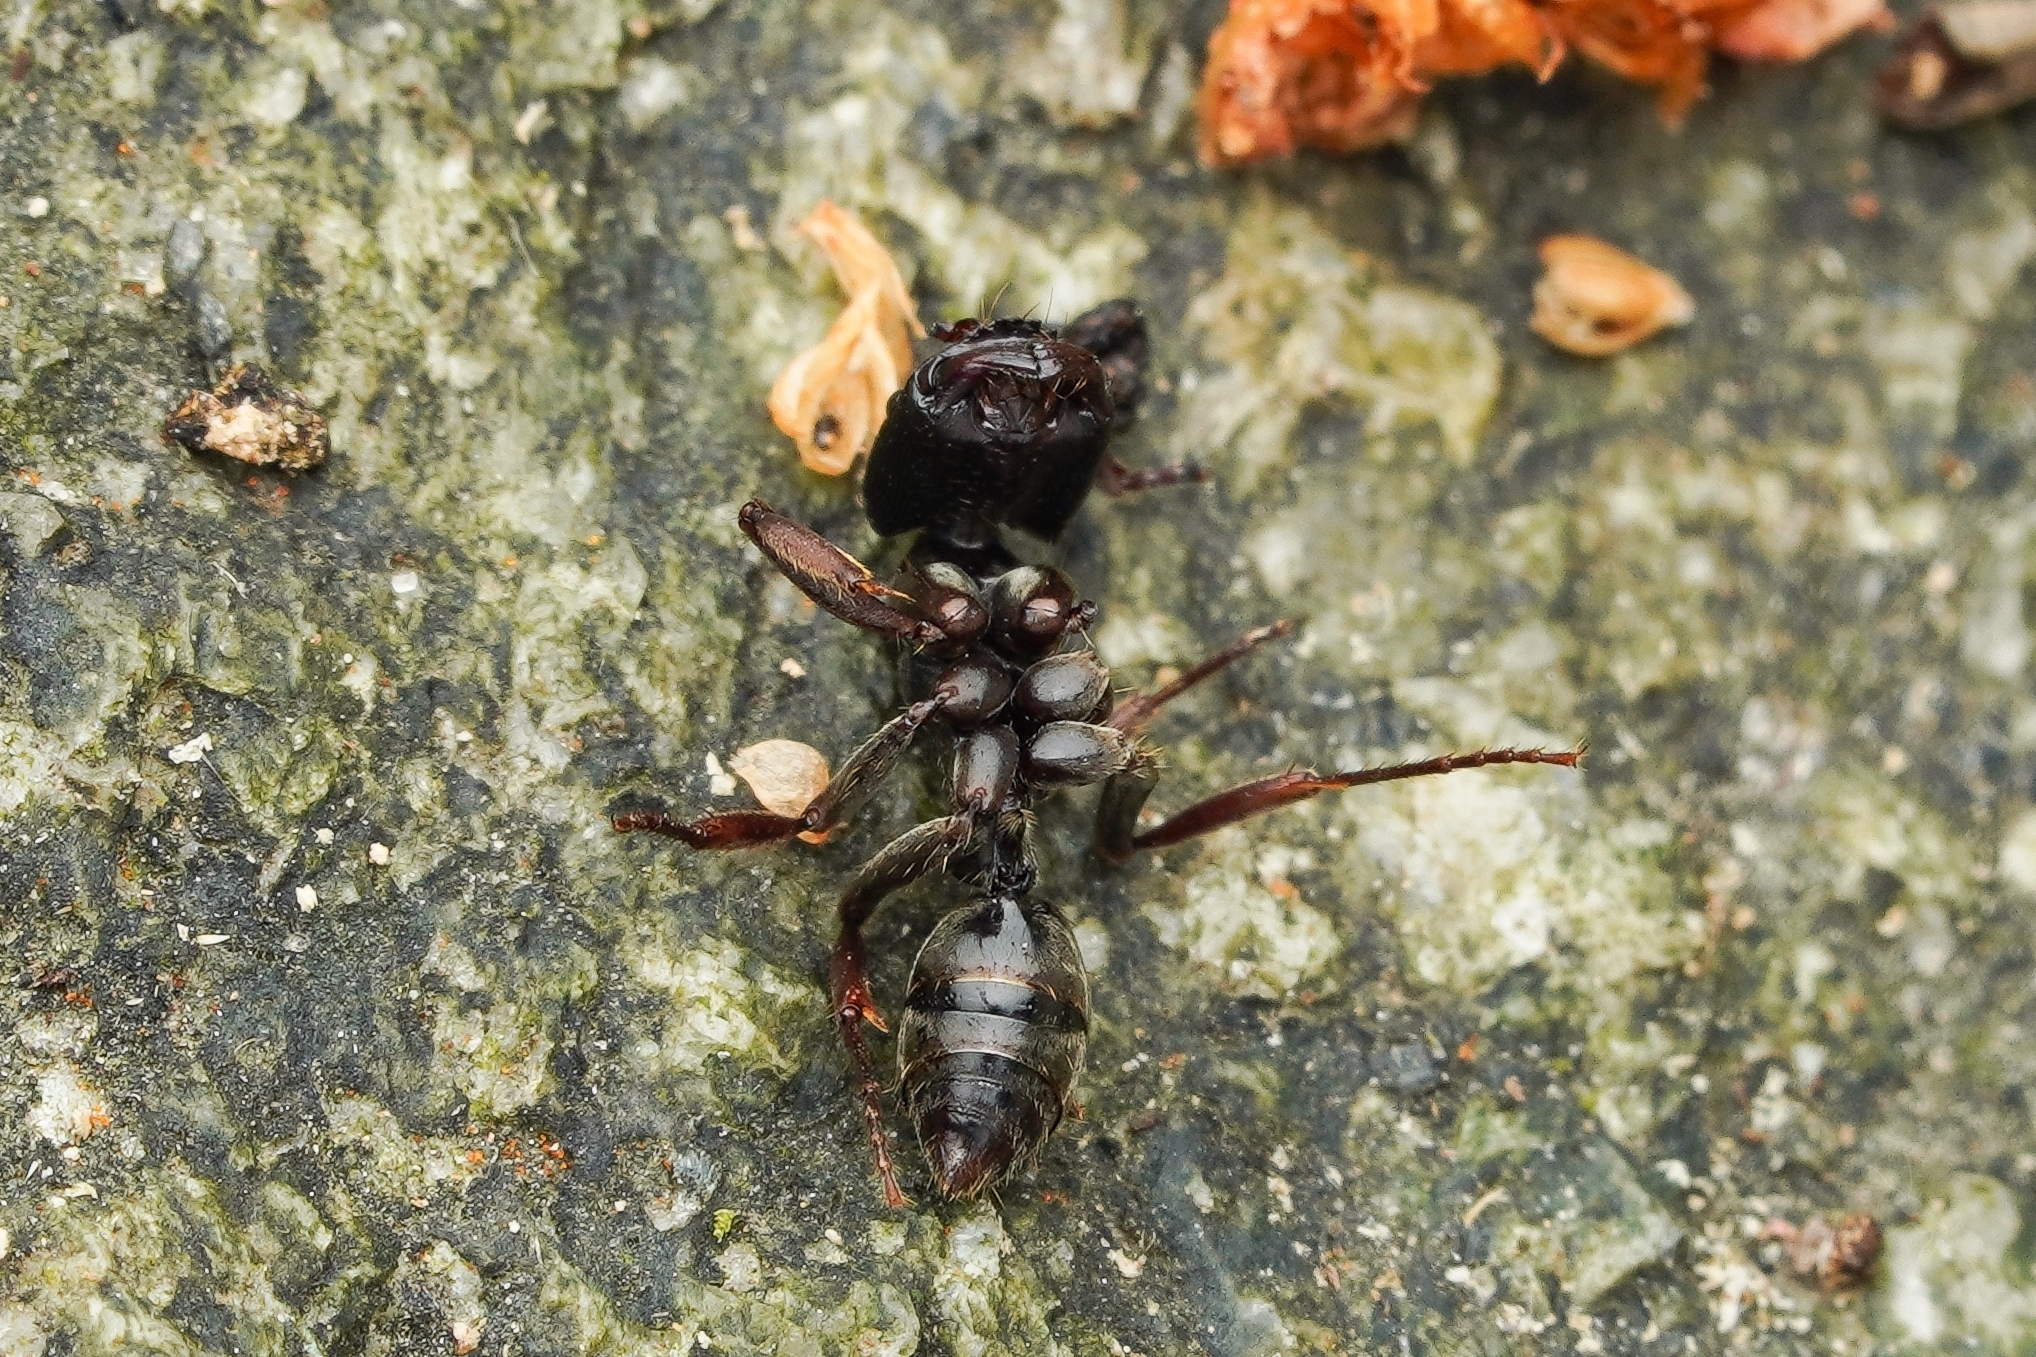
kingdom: Animalia
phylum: Arthropoda
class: Insecta
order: Hymenoptera
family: Formicidae
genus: Odontoponera
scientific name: Odontoponera denticulata
